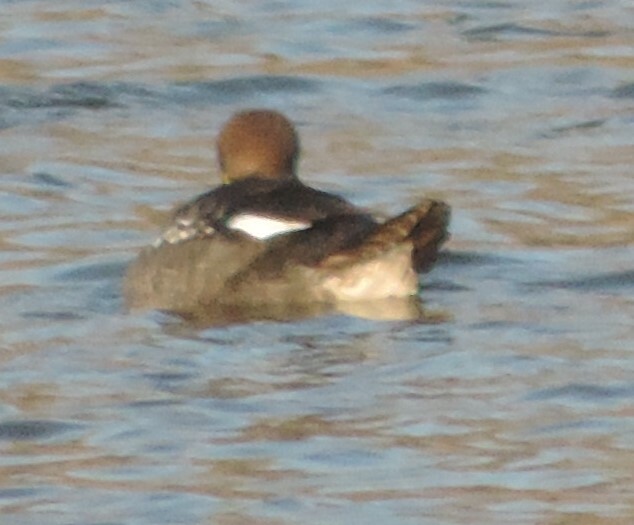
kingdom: Animalia
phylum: Chordata
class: Aves
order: Anseriformes
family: Anatidae
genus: Lophodytes
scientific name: Lophodytes cucullatus
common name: Hooded merganser
